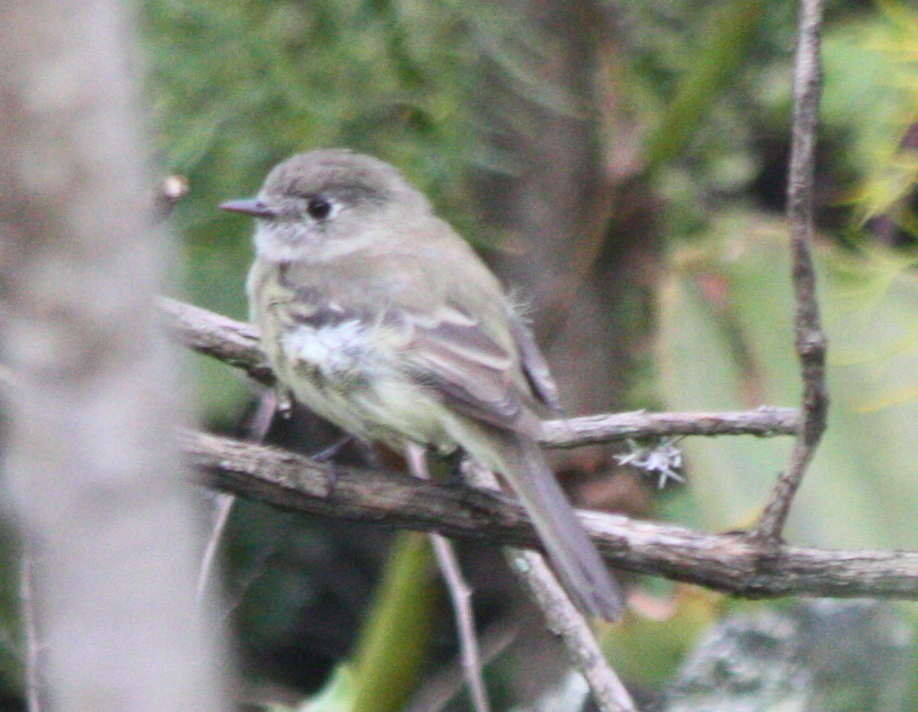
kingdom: Animalia
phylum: Chordata
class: Aves
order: Passeriformes
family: Tyrannidae
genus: Empidonax
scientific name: Empidonax difficilis
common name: Pacific-slope flycatcher
